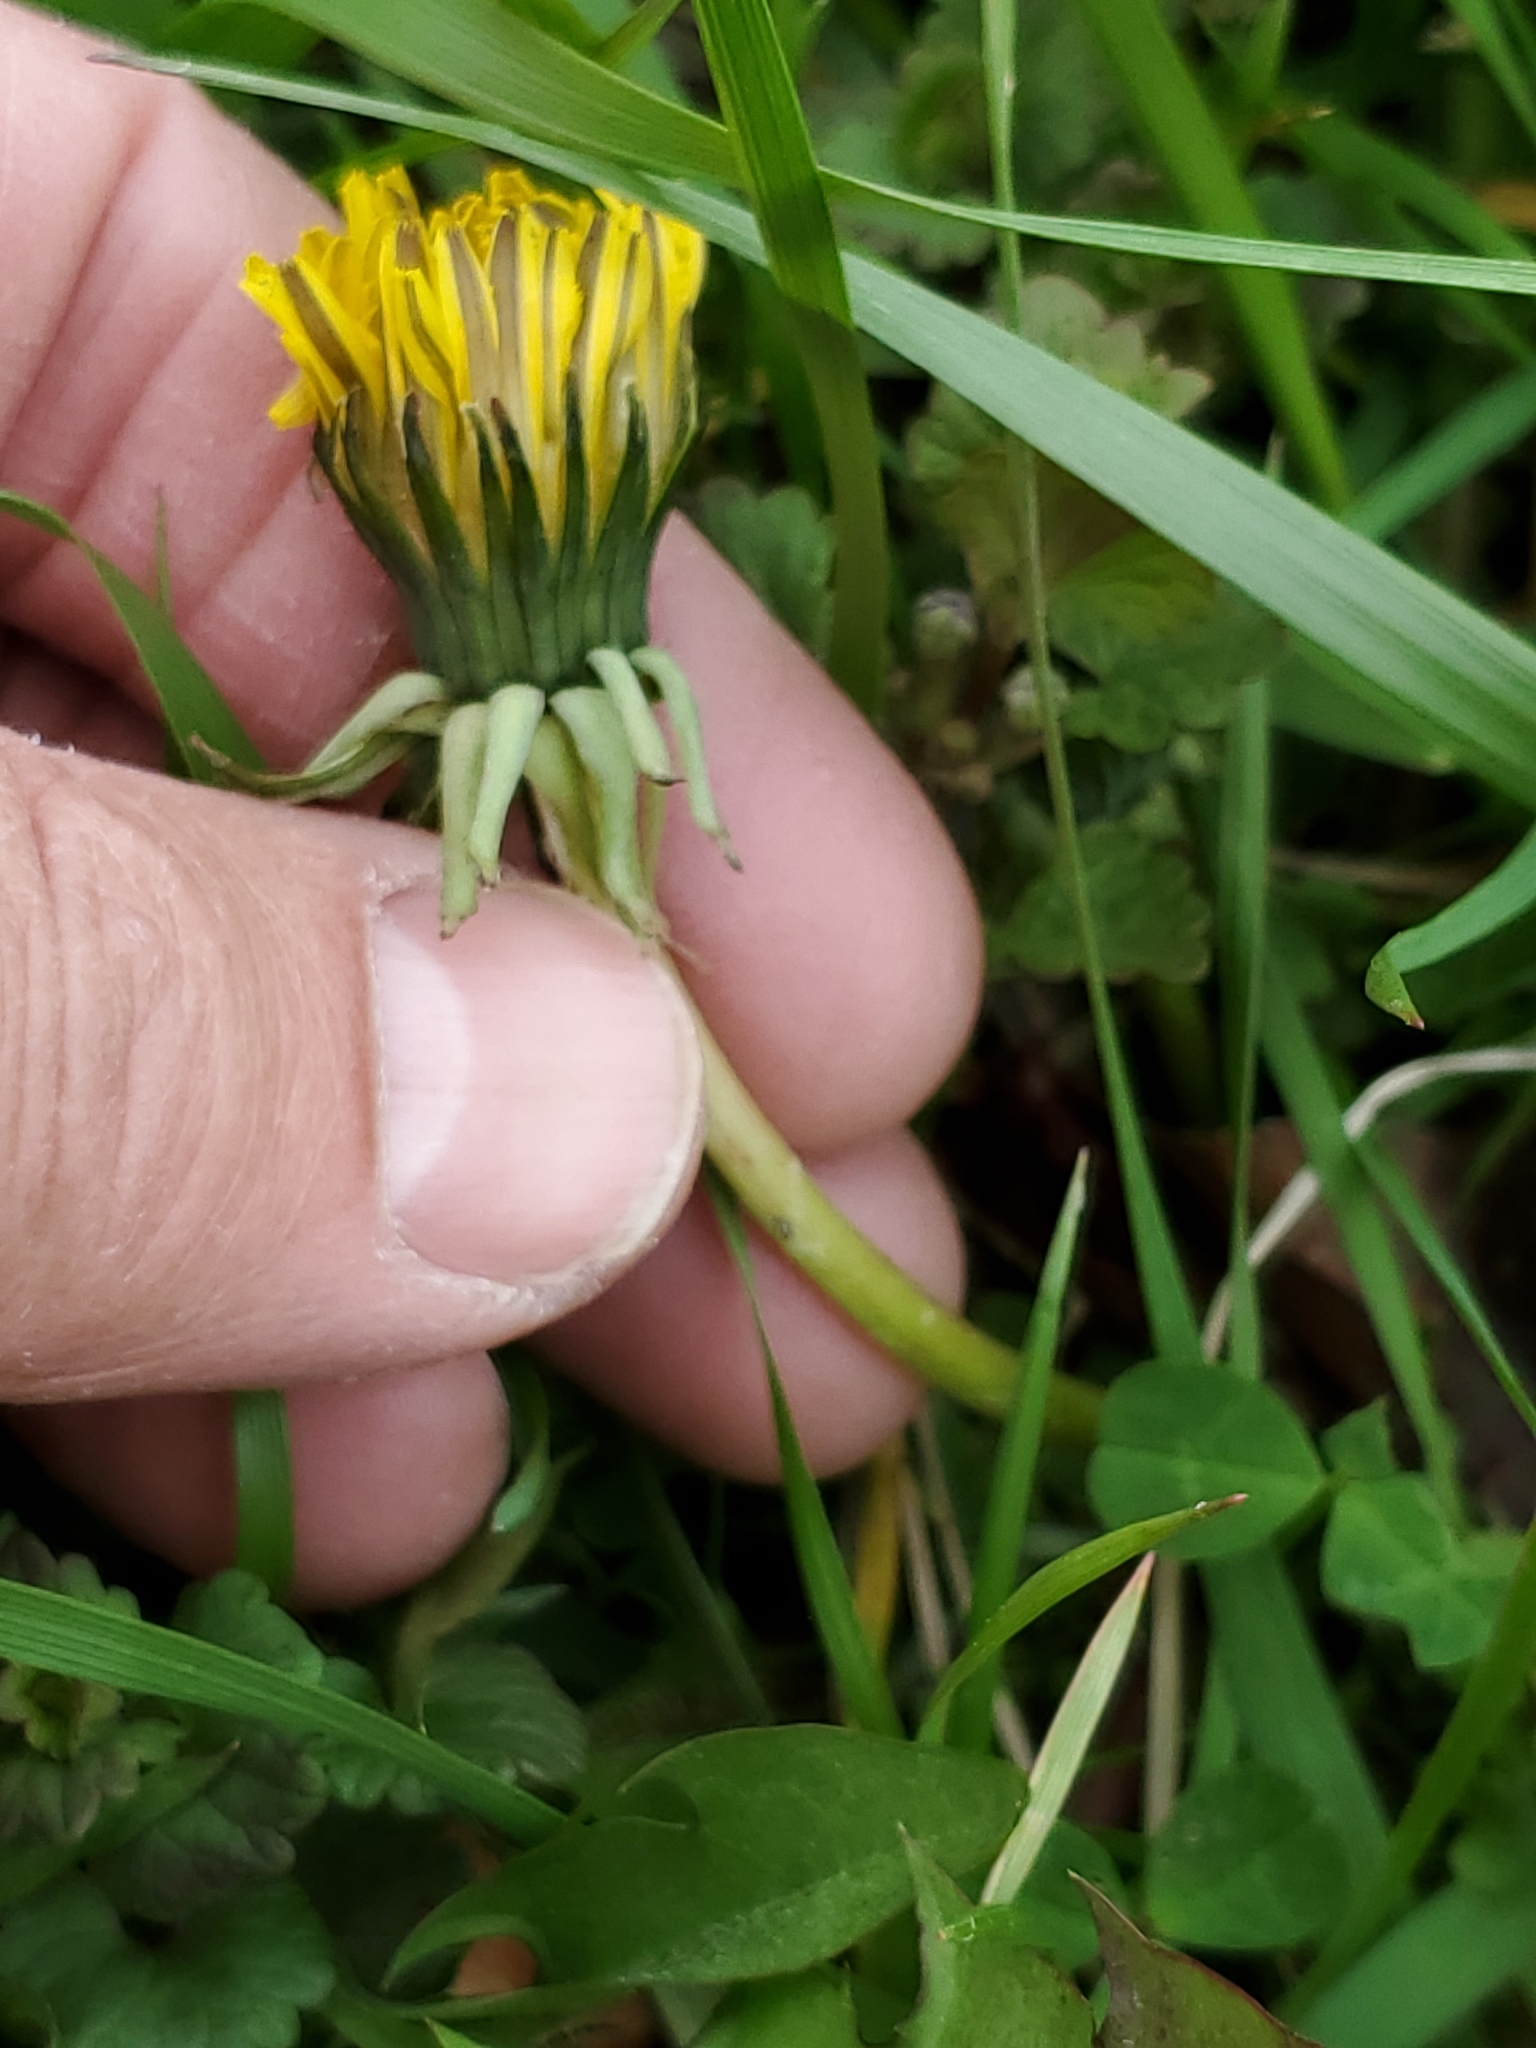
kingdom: Plantae
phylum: Tracheophyta
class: Magnoliopsida
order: Asterales
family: Asteraceae
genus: Taraxacum
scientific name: Taraxacum officinale
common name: Common dandelion
